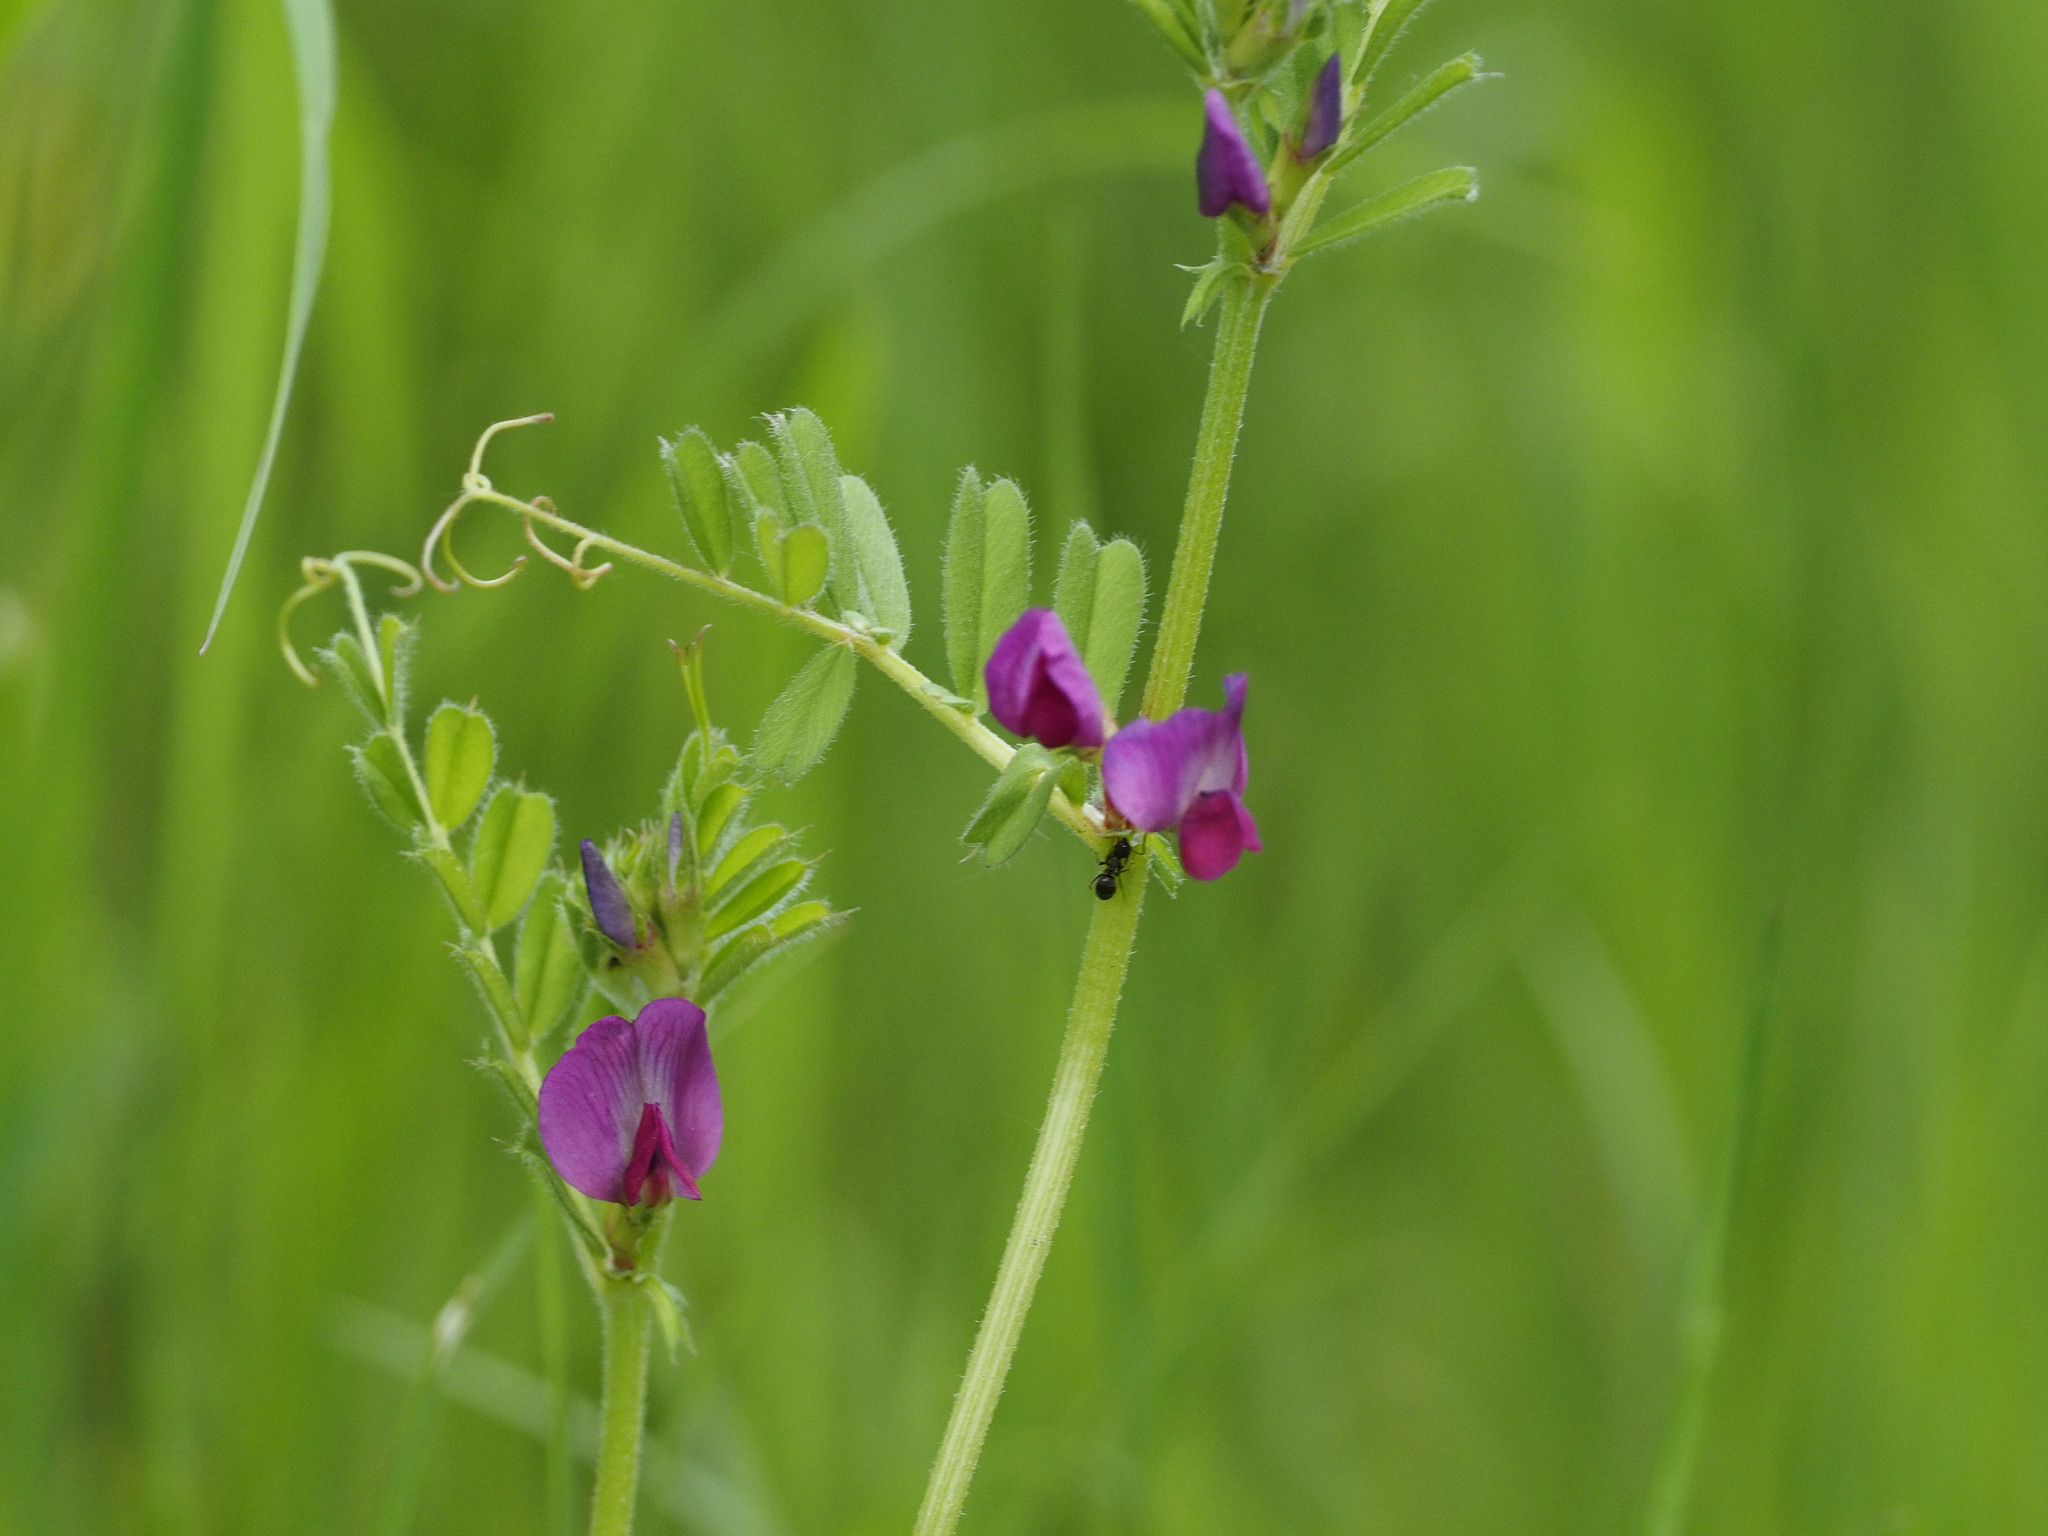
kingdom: Plantae
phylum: Tracheophyta
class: Magnoliopsida
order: Fabales
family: Fabaceae
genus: Vicia
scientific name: Vicia sativa
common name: Garden vetch
